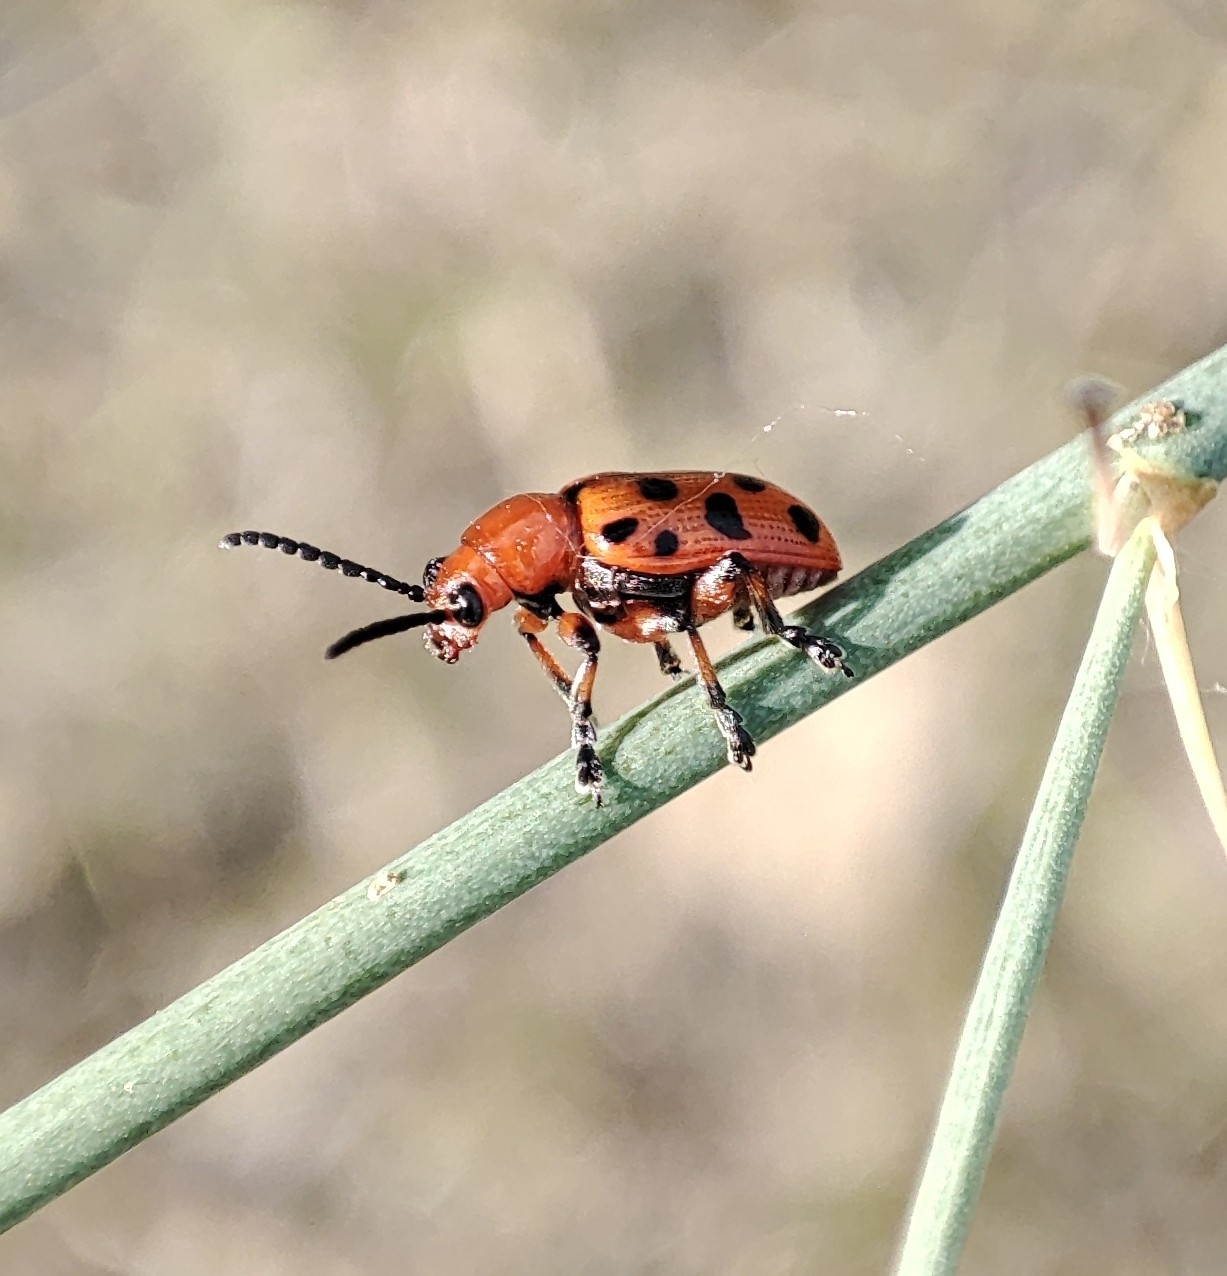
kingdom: Animalia
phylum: Arthropoda
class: Insecta
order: Coleoptera
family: Chrysomelidae
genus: Crioceris
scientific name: Crioceris duodecimpunctata
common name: Twelve-spotted asparagus beetle
